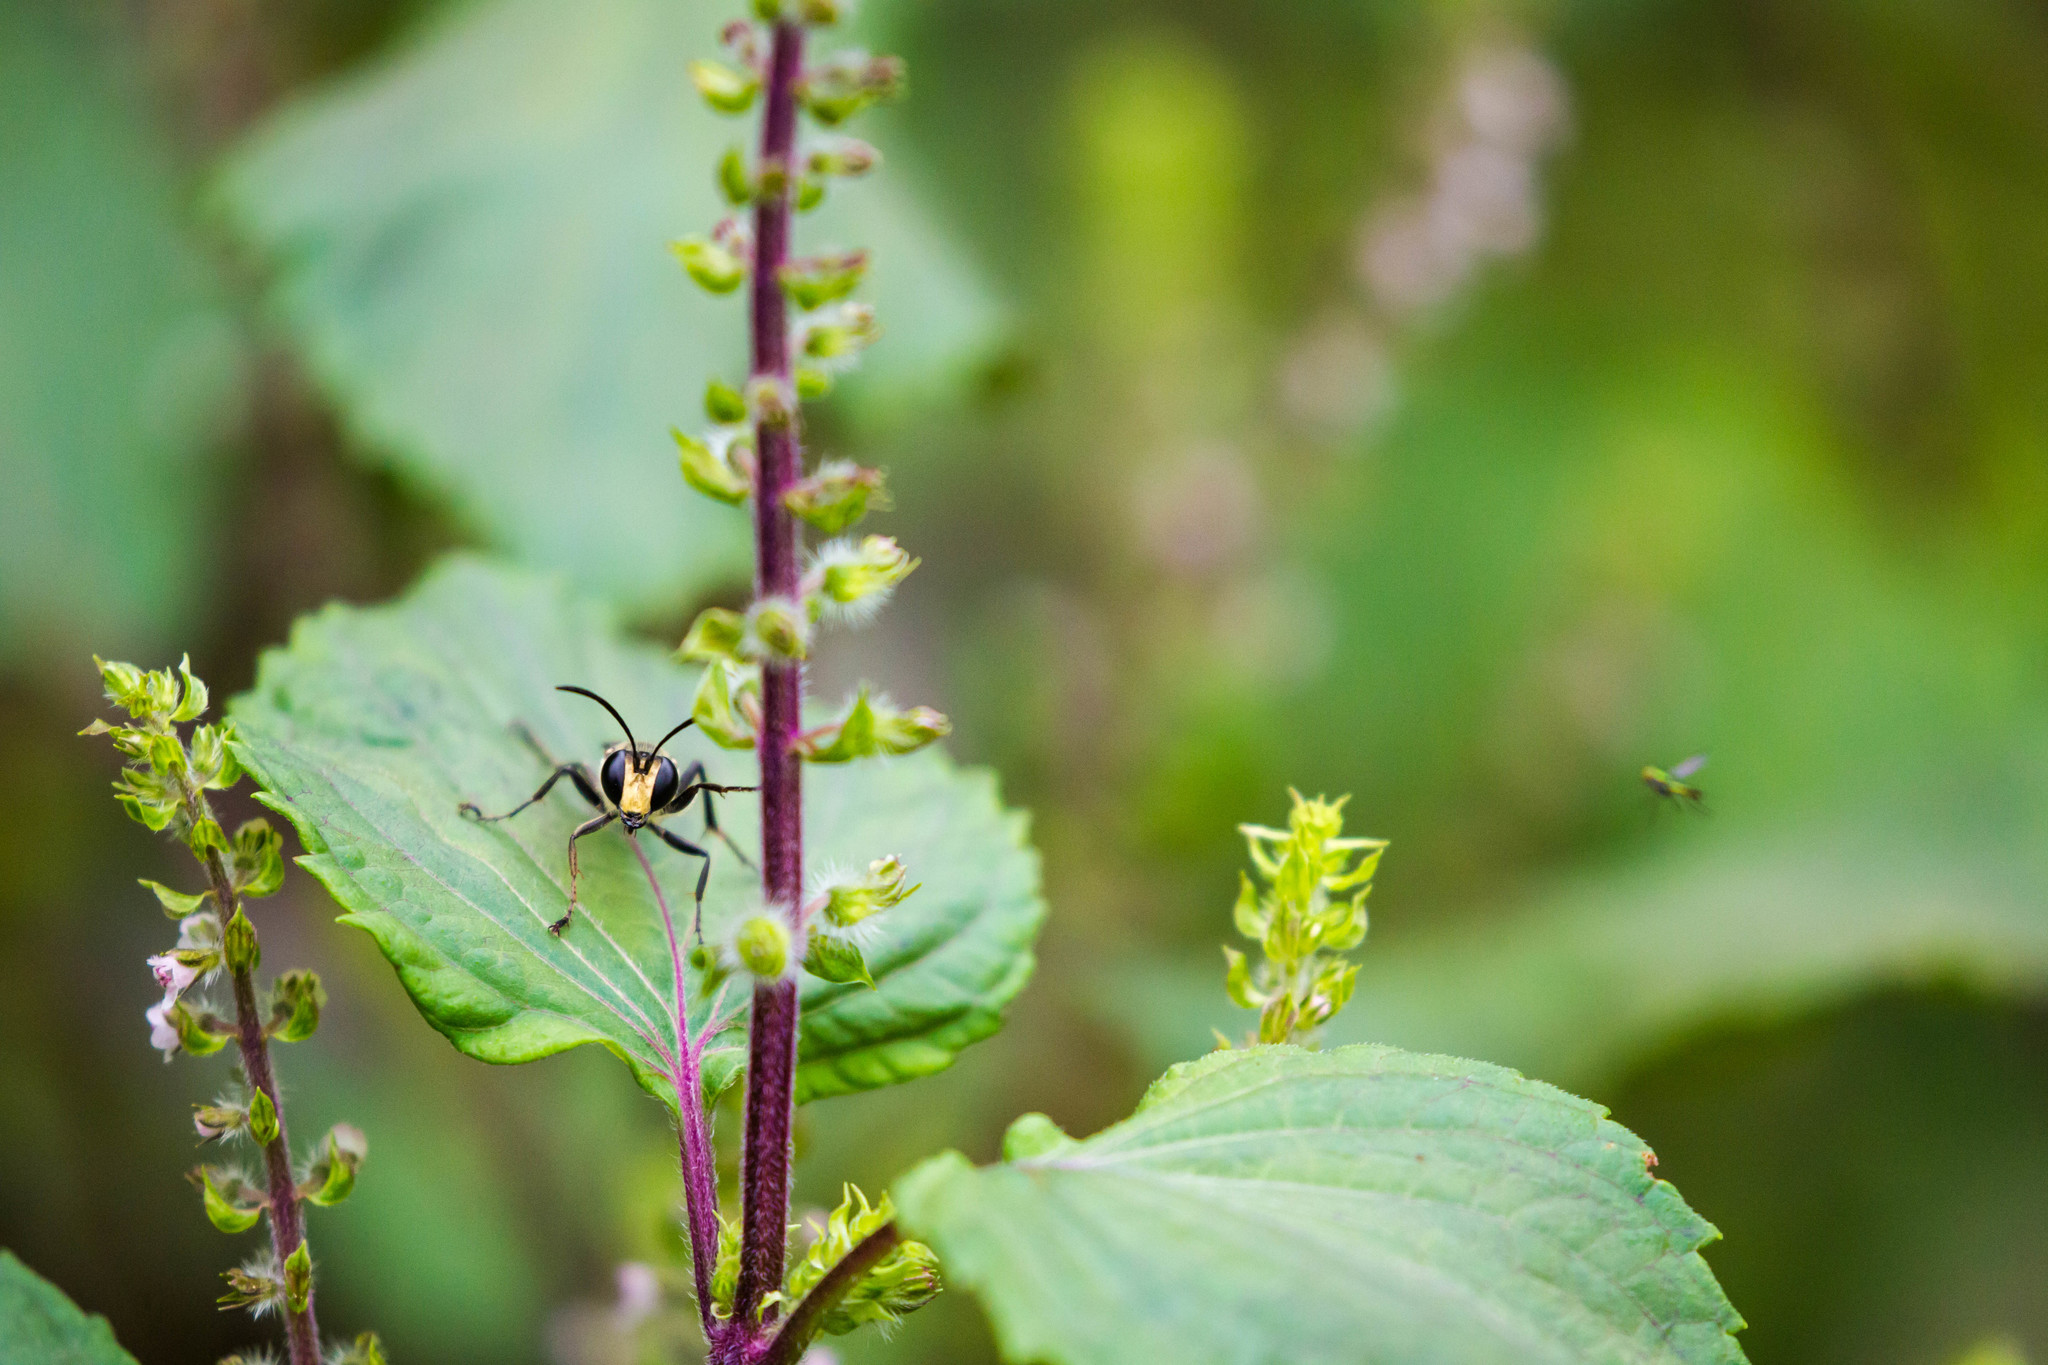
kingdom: Animalia
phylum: Arthropoda
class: Insecta
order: Hymenoptera
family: Sphecidae
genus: Sphex
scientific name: Sphex habenus
